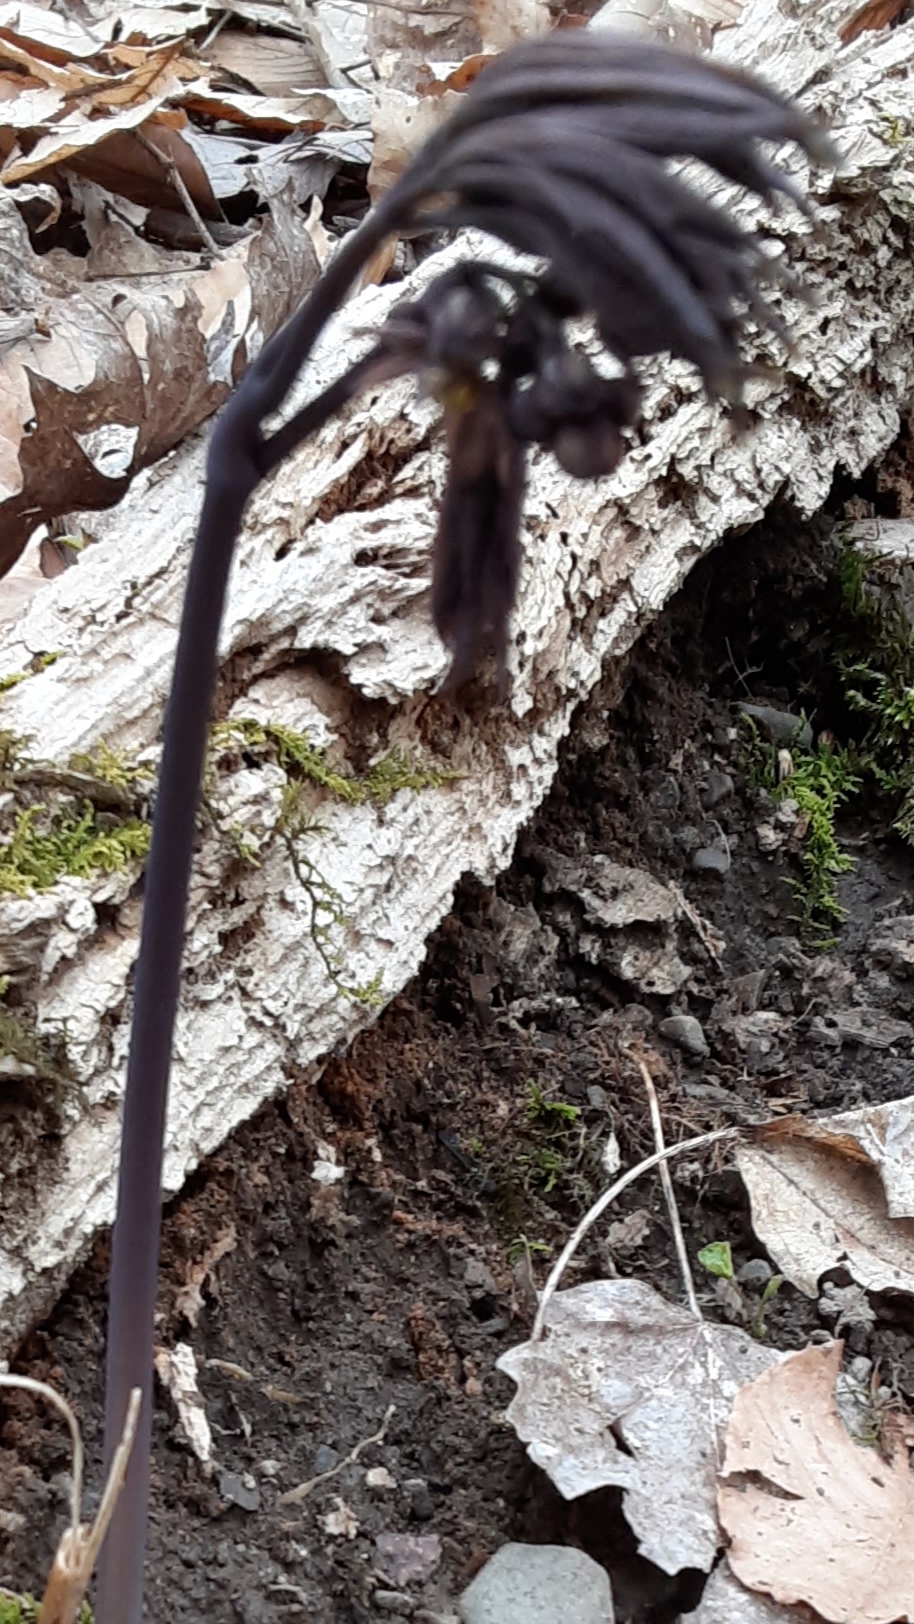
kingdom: Plantae
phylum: Tracheophyta
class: Magnoliopsida
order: Ranunculales
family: Berberidaceae
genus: Caulophyllum
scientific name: Caulophyllum giganteum
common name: Blue cohosh
